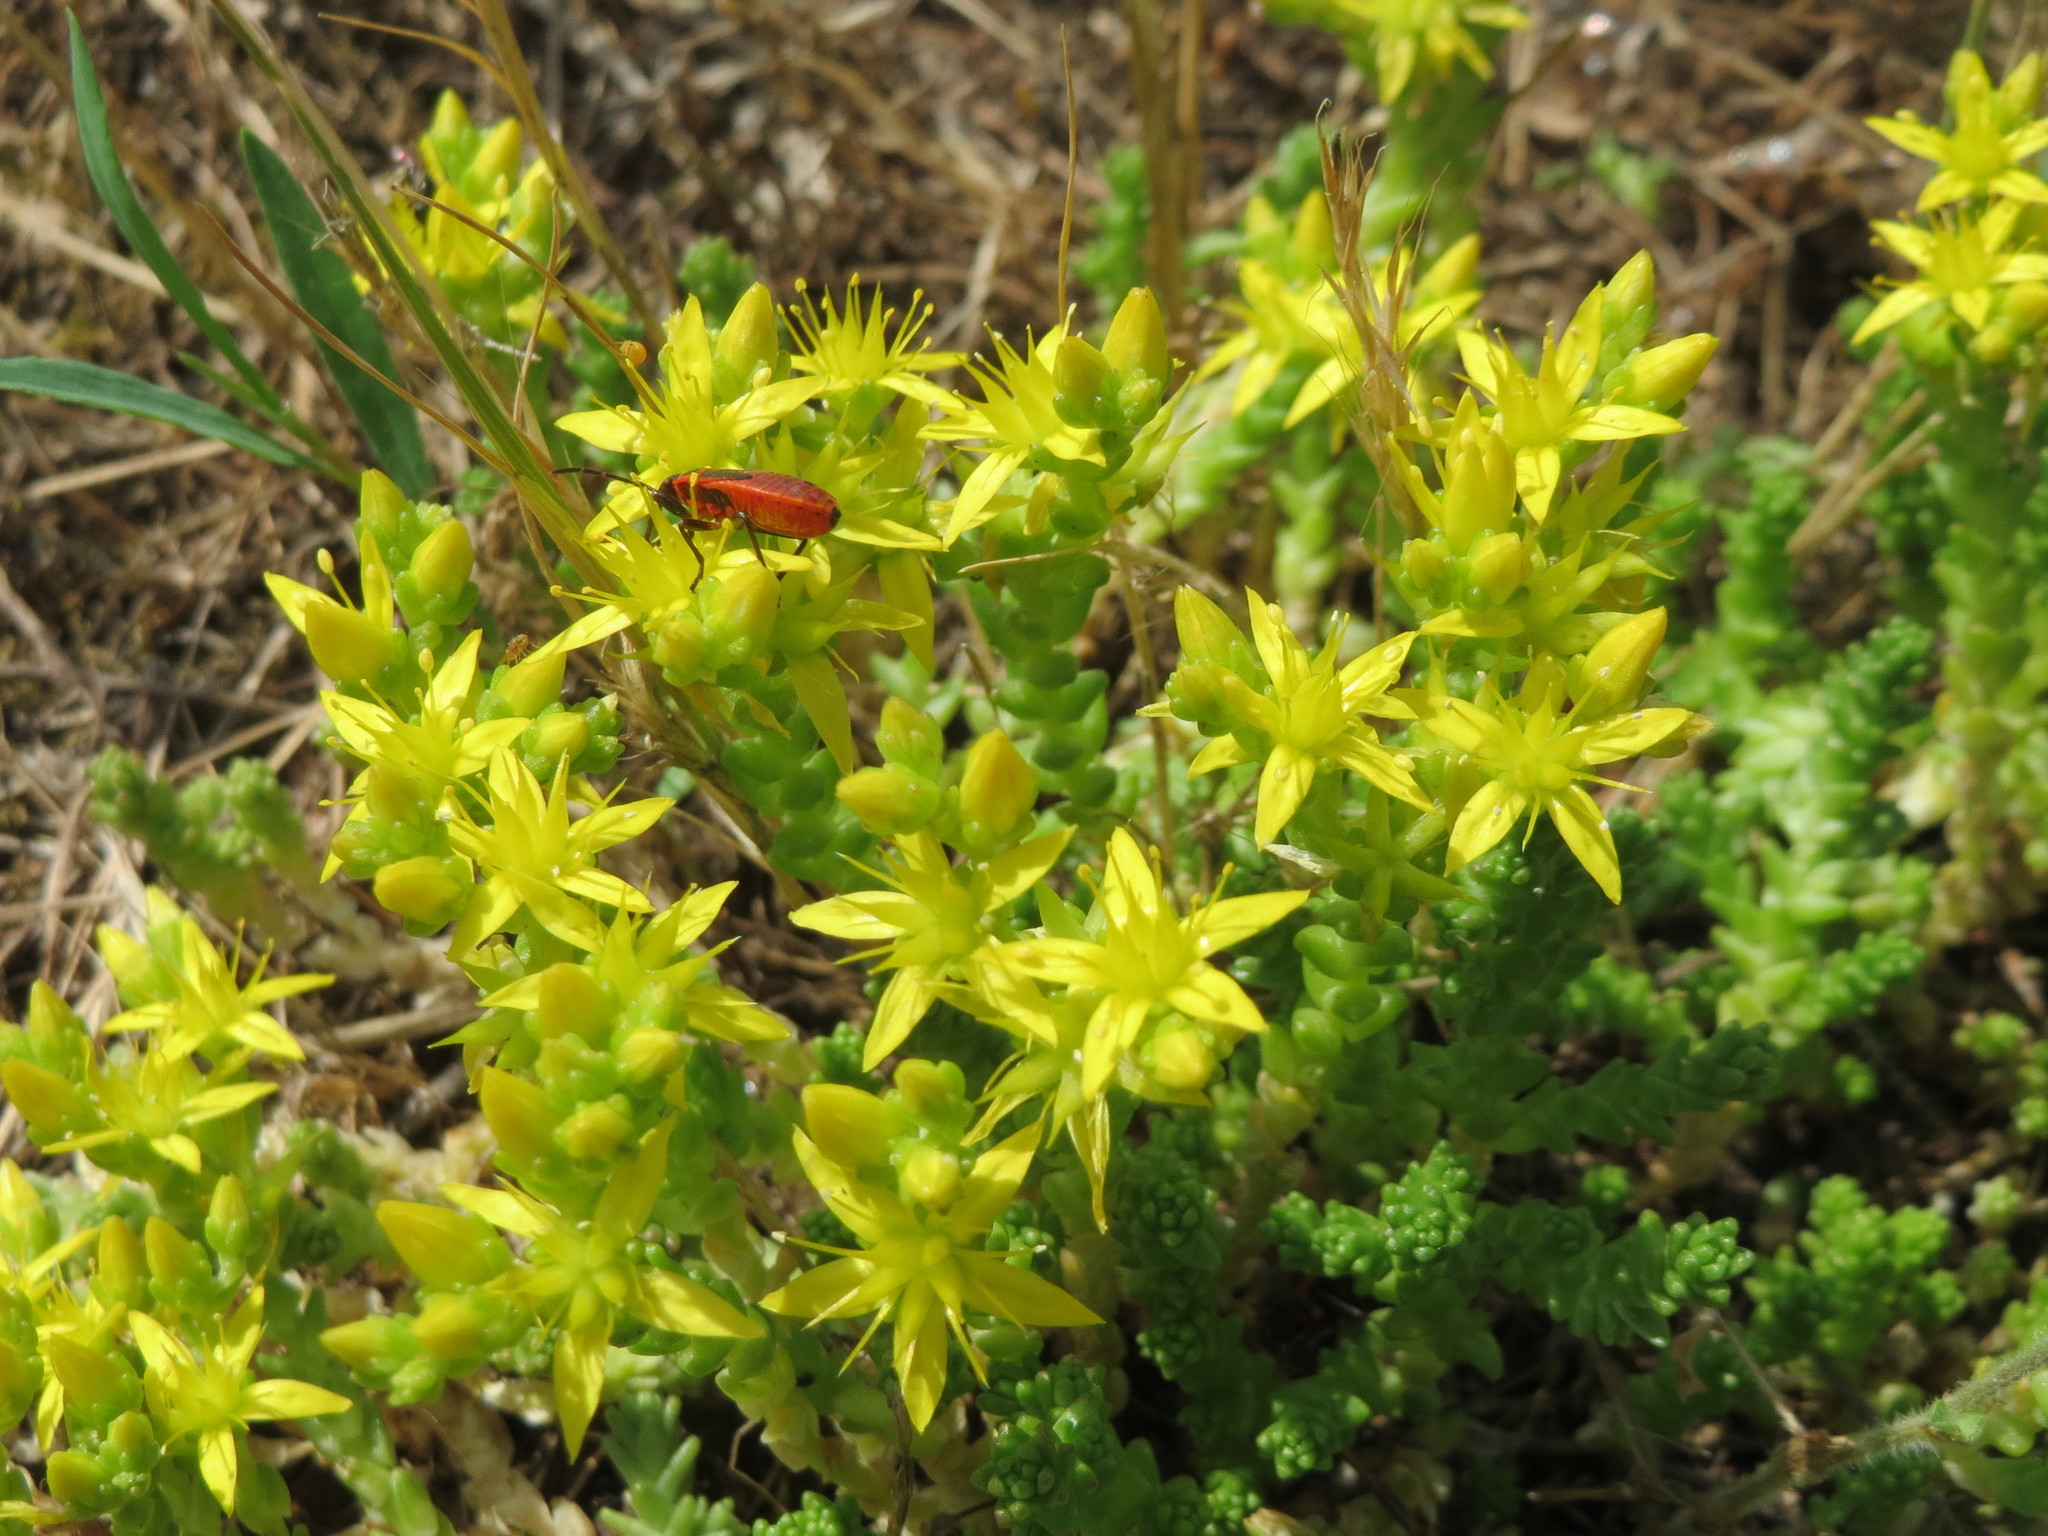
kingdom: Plantae
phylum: Tracheophyta
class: Magnoliopsida
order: Saxifragales
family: Crassulaceae
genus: Sedum
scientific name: Sedum acre
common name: Biting stonecrop
